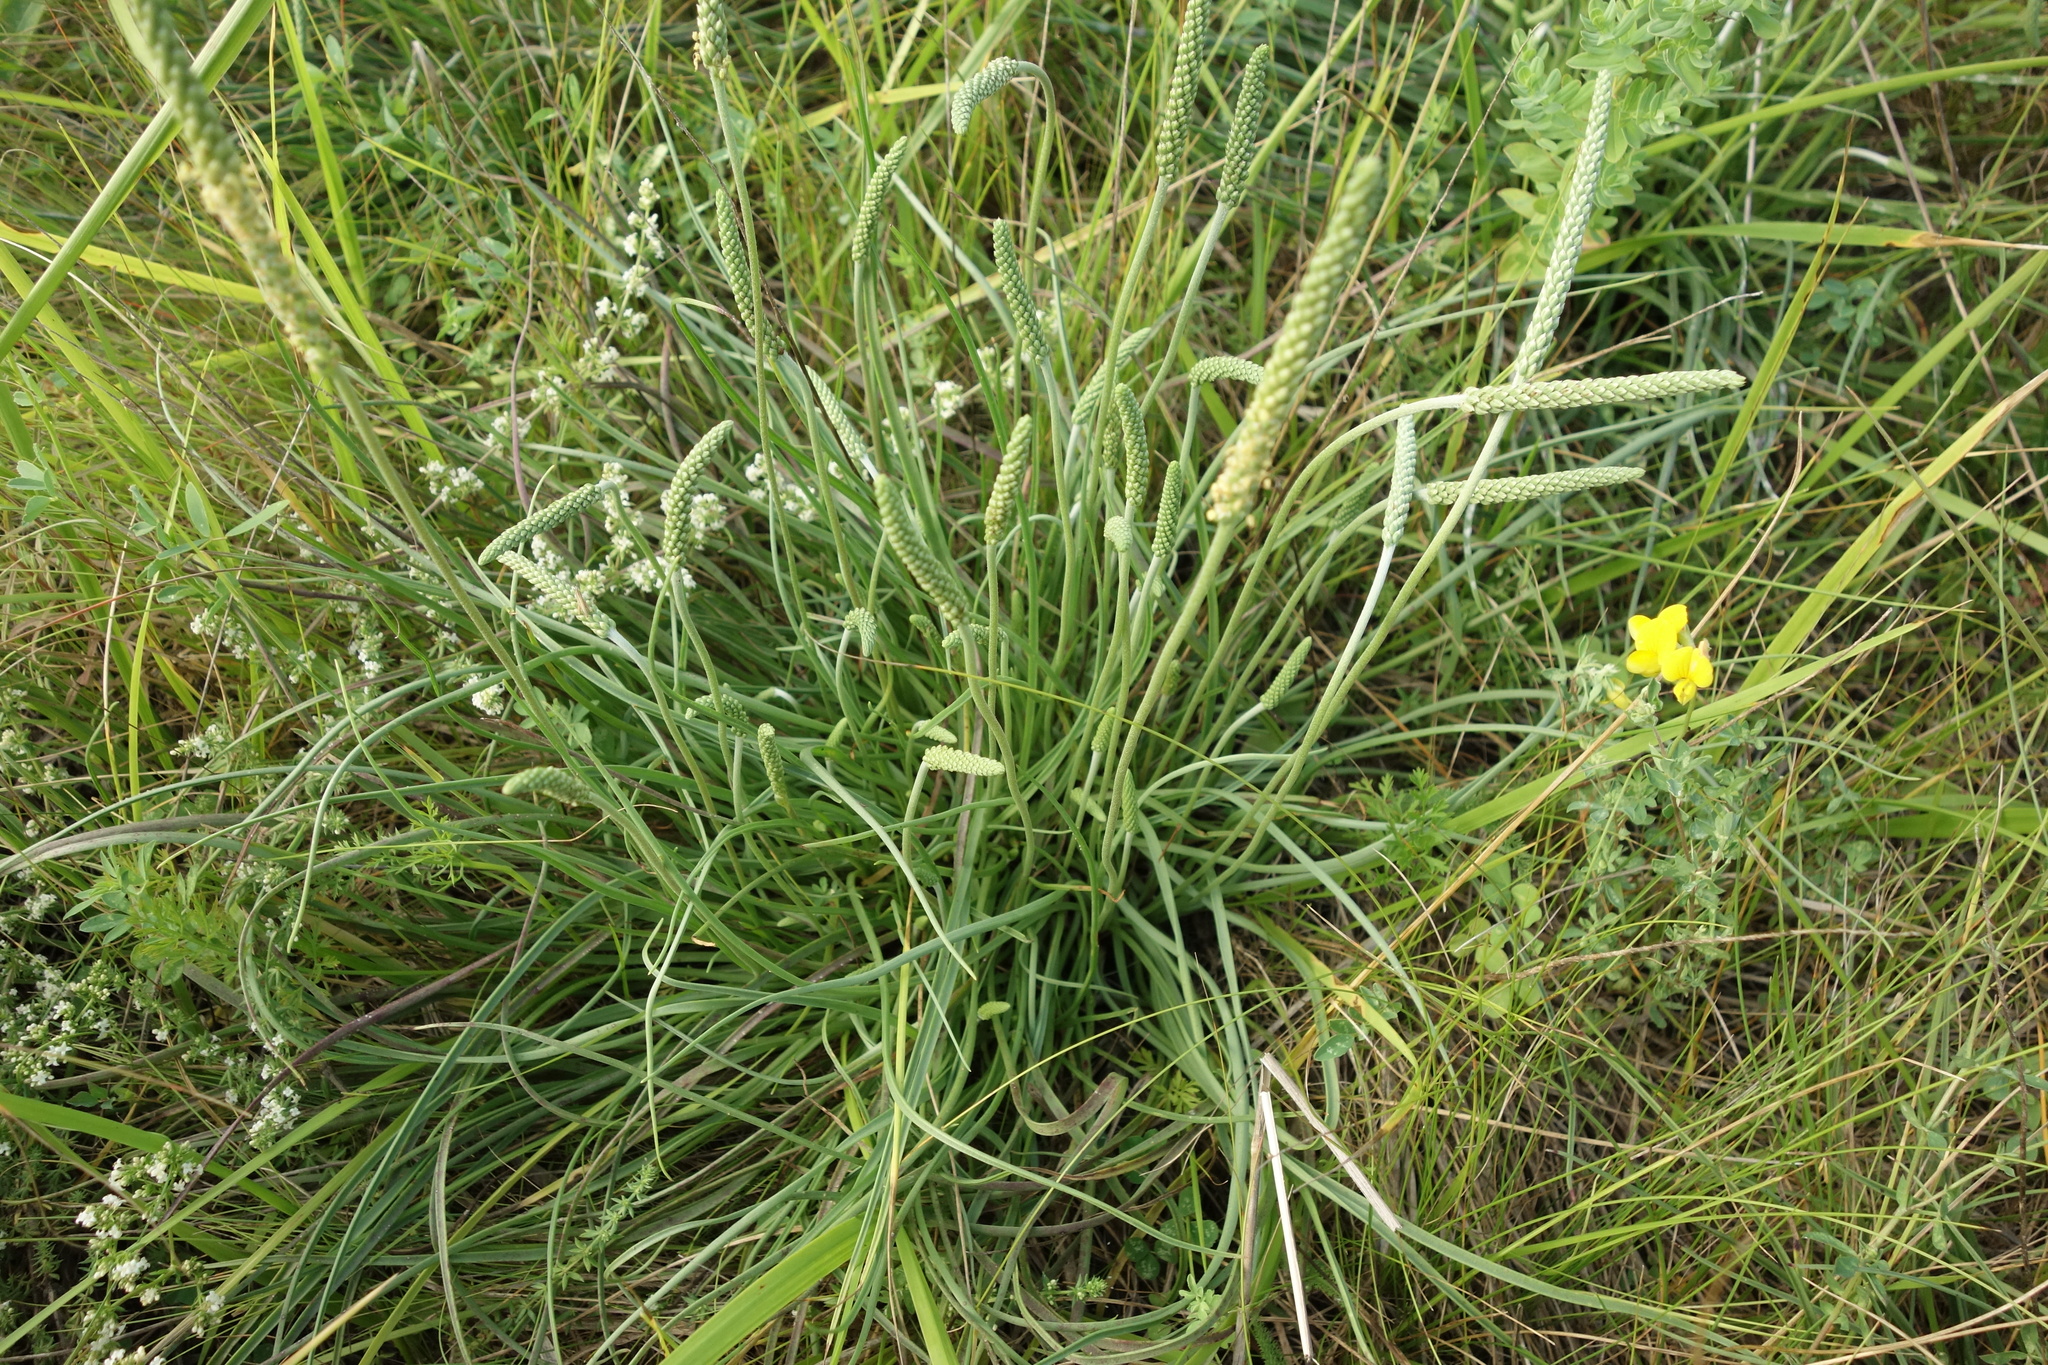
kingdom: Plantae
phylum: Tracheophyta
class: Magnoliopsida
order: Lamiales
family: Plantaginaceae
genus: Plantago
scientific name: Plantago salsa
